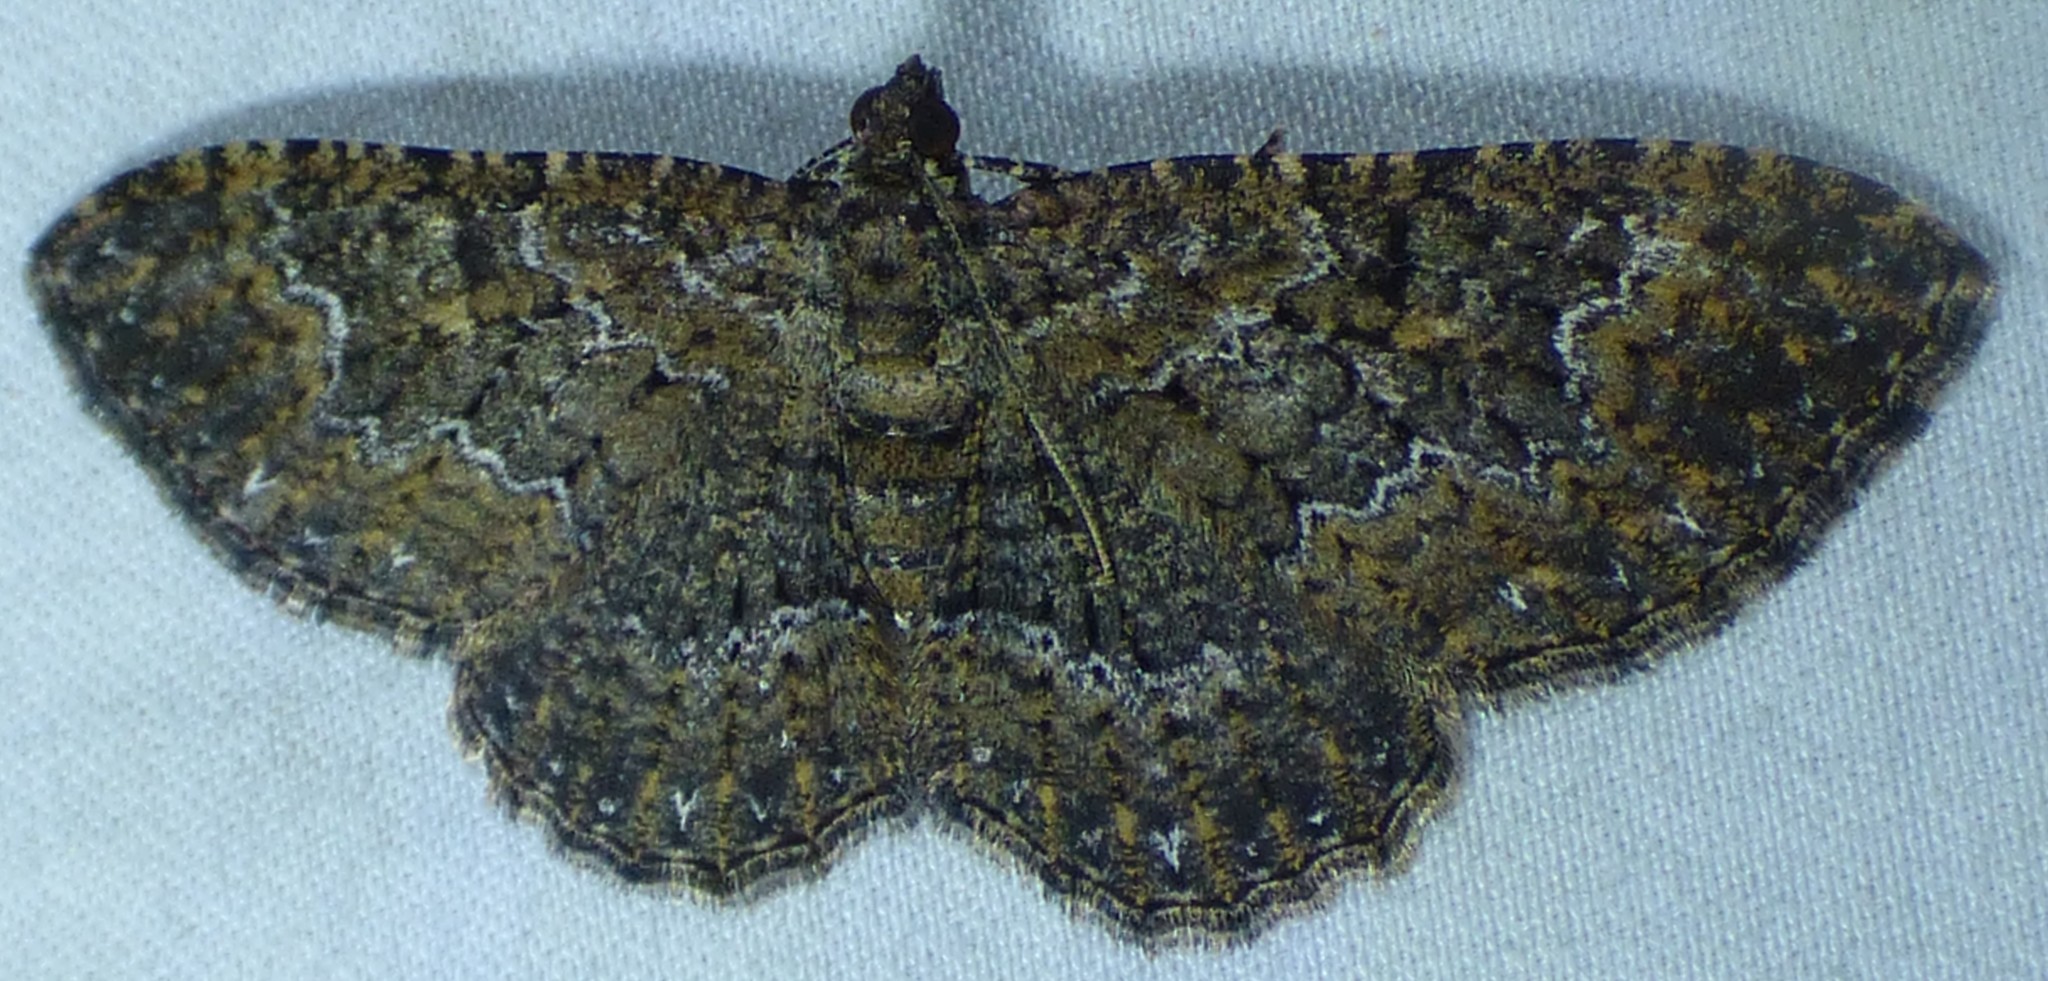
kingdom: Animalia
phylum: Arthropoda
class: Insecta
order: Lepidoptera
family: Geometridae
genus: Disclisioprocta
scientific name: Disclisioprocta stellata
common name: Somber carpet
